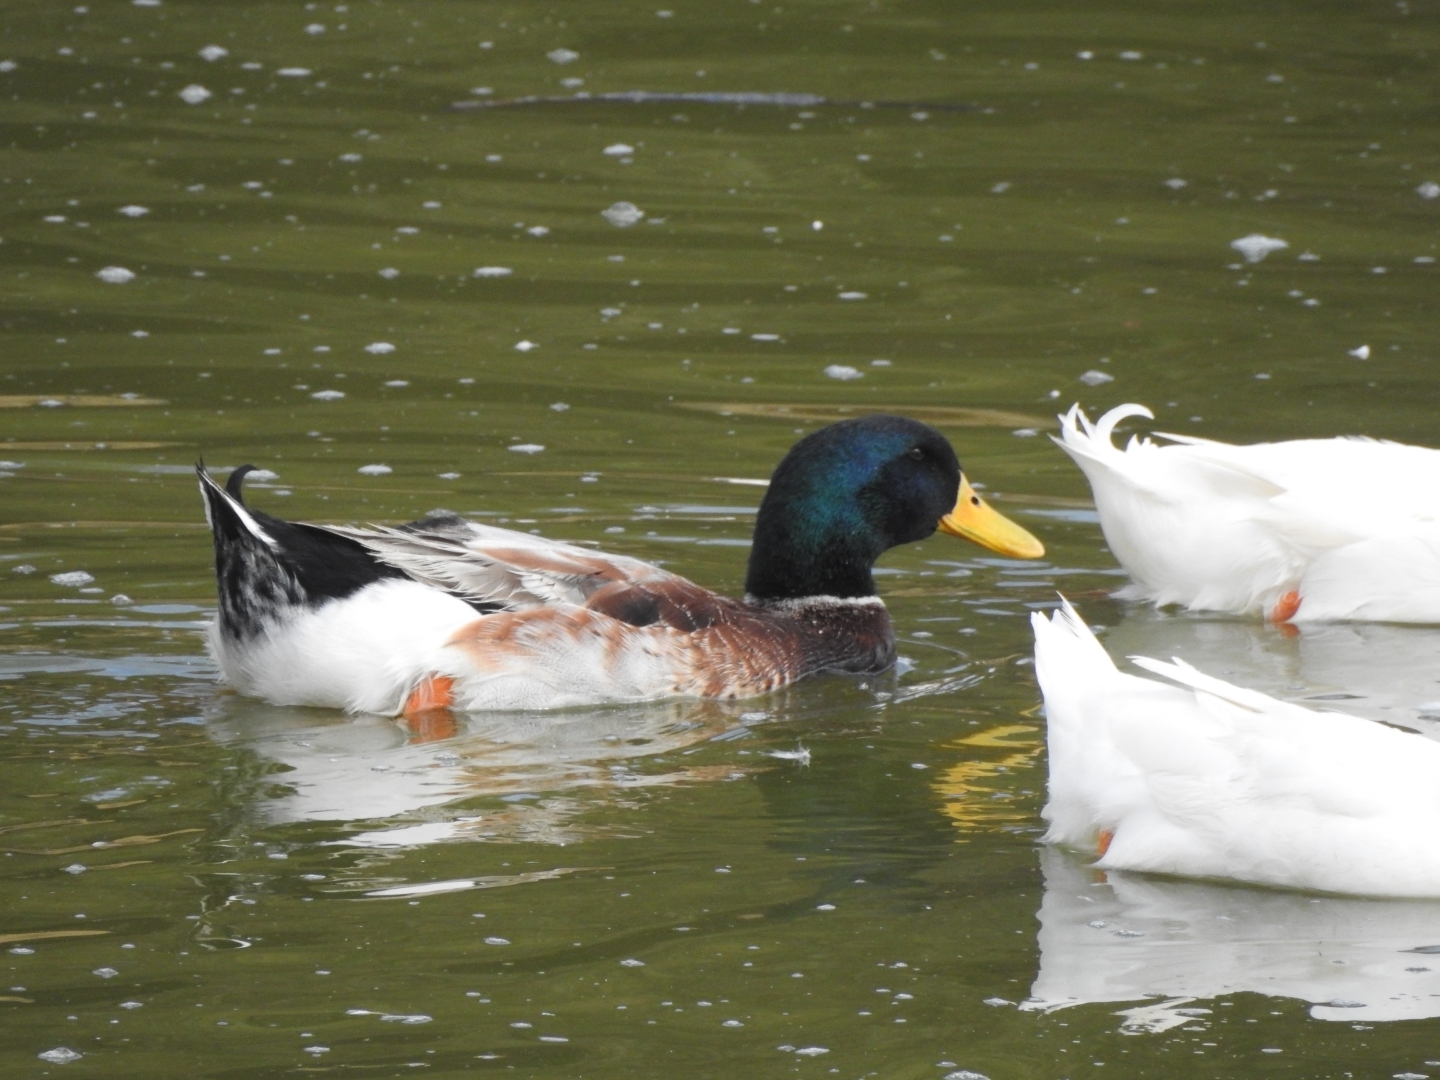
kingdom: Animalia
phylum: Chordata
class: Aves
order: Anseriformes
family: Anatidae
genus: Anas
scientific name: Anas platyrhynchos
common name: Mallard
